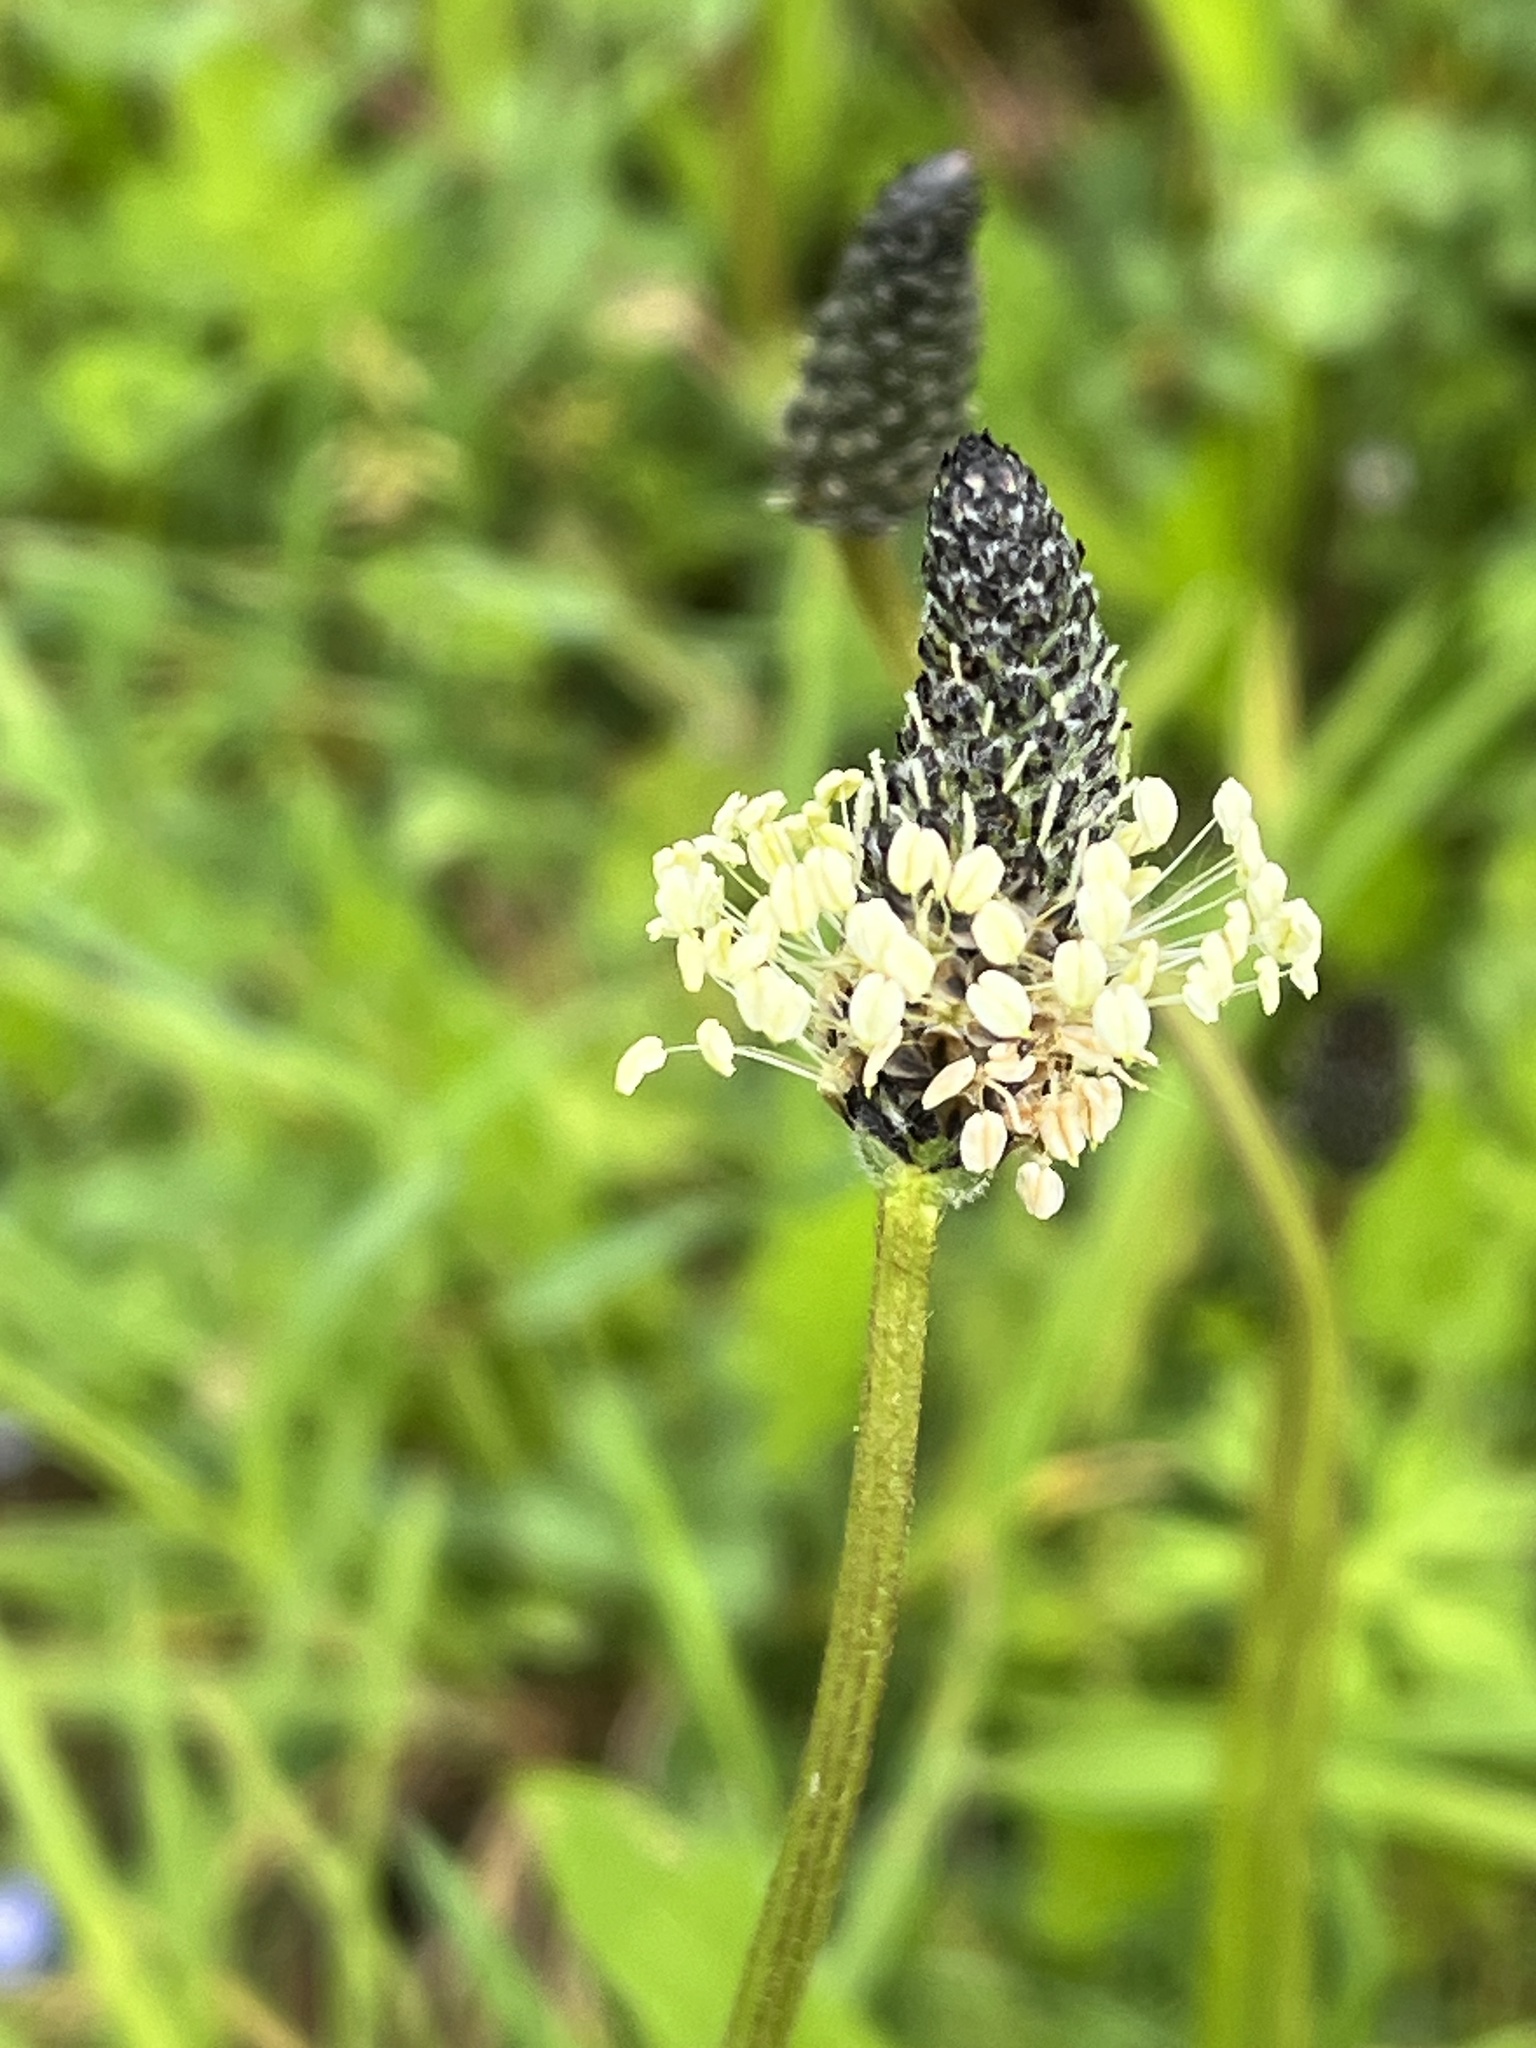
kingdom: Plantae
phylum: Tracheophyta
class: Magnoliopsida
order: Lamiales
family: Plantaginaceae
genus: Plantago
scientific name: Plantago lanceolata
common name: Ribwort plantain
